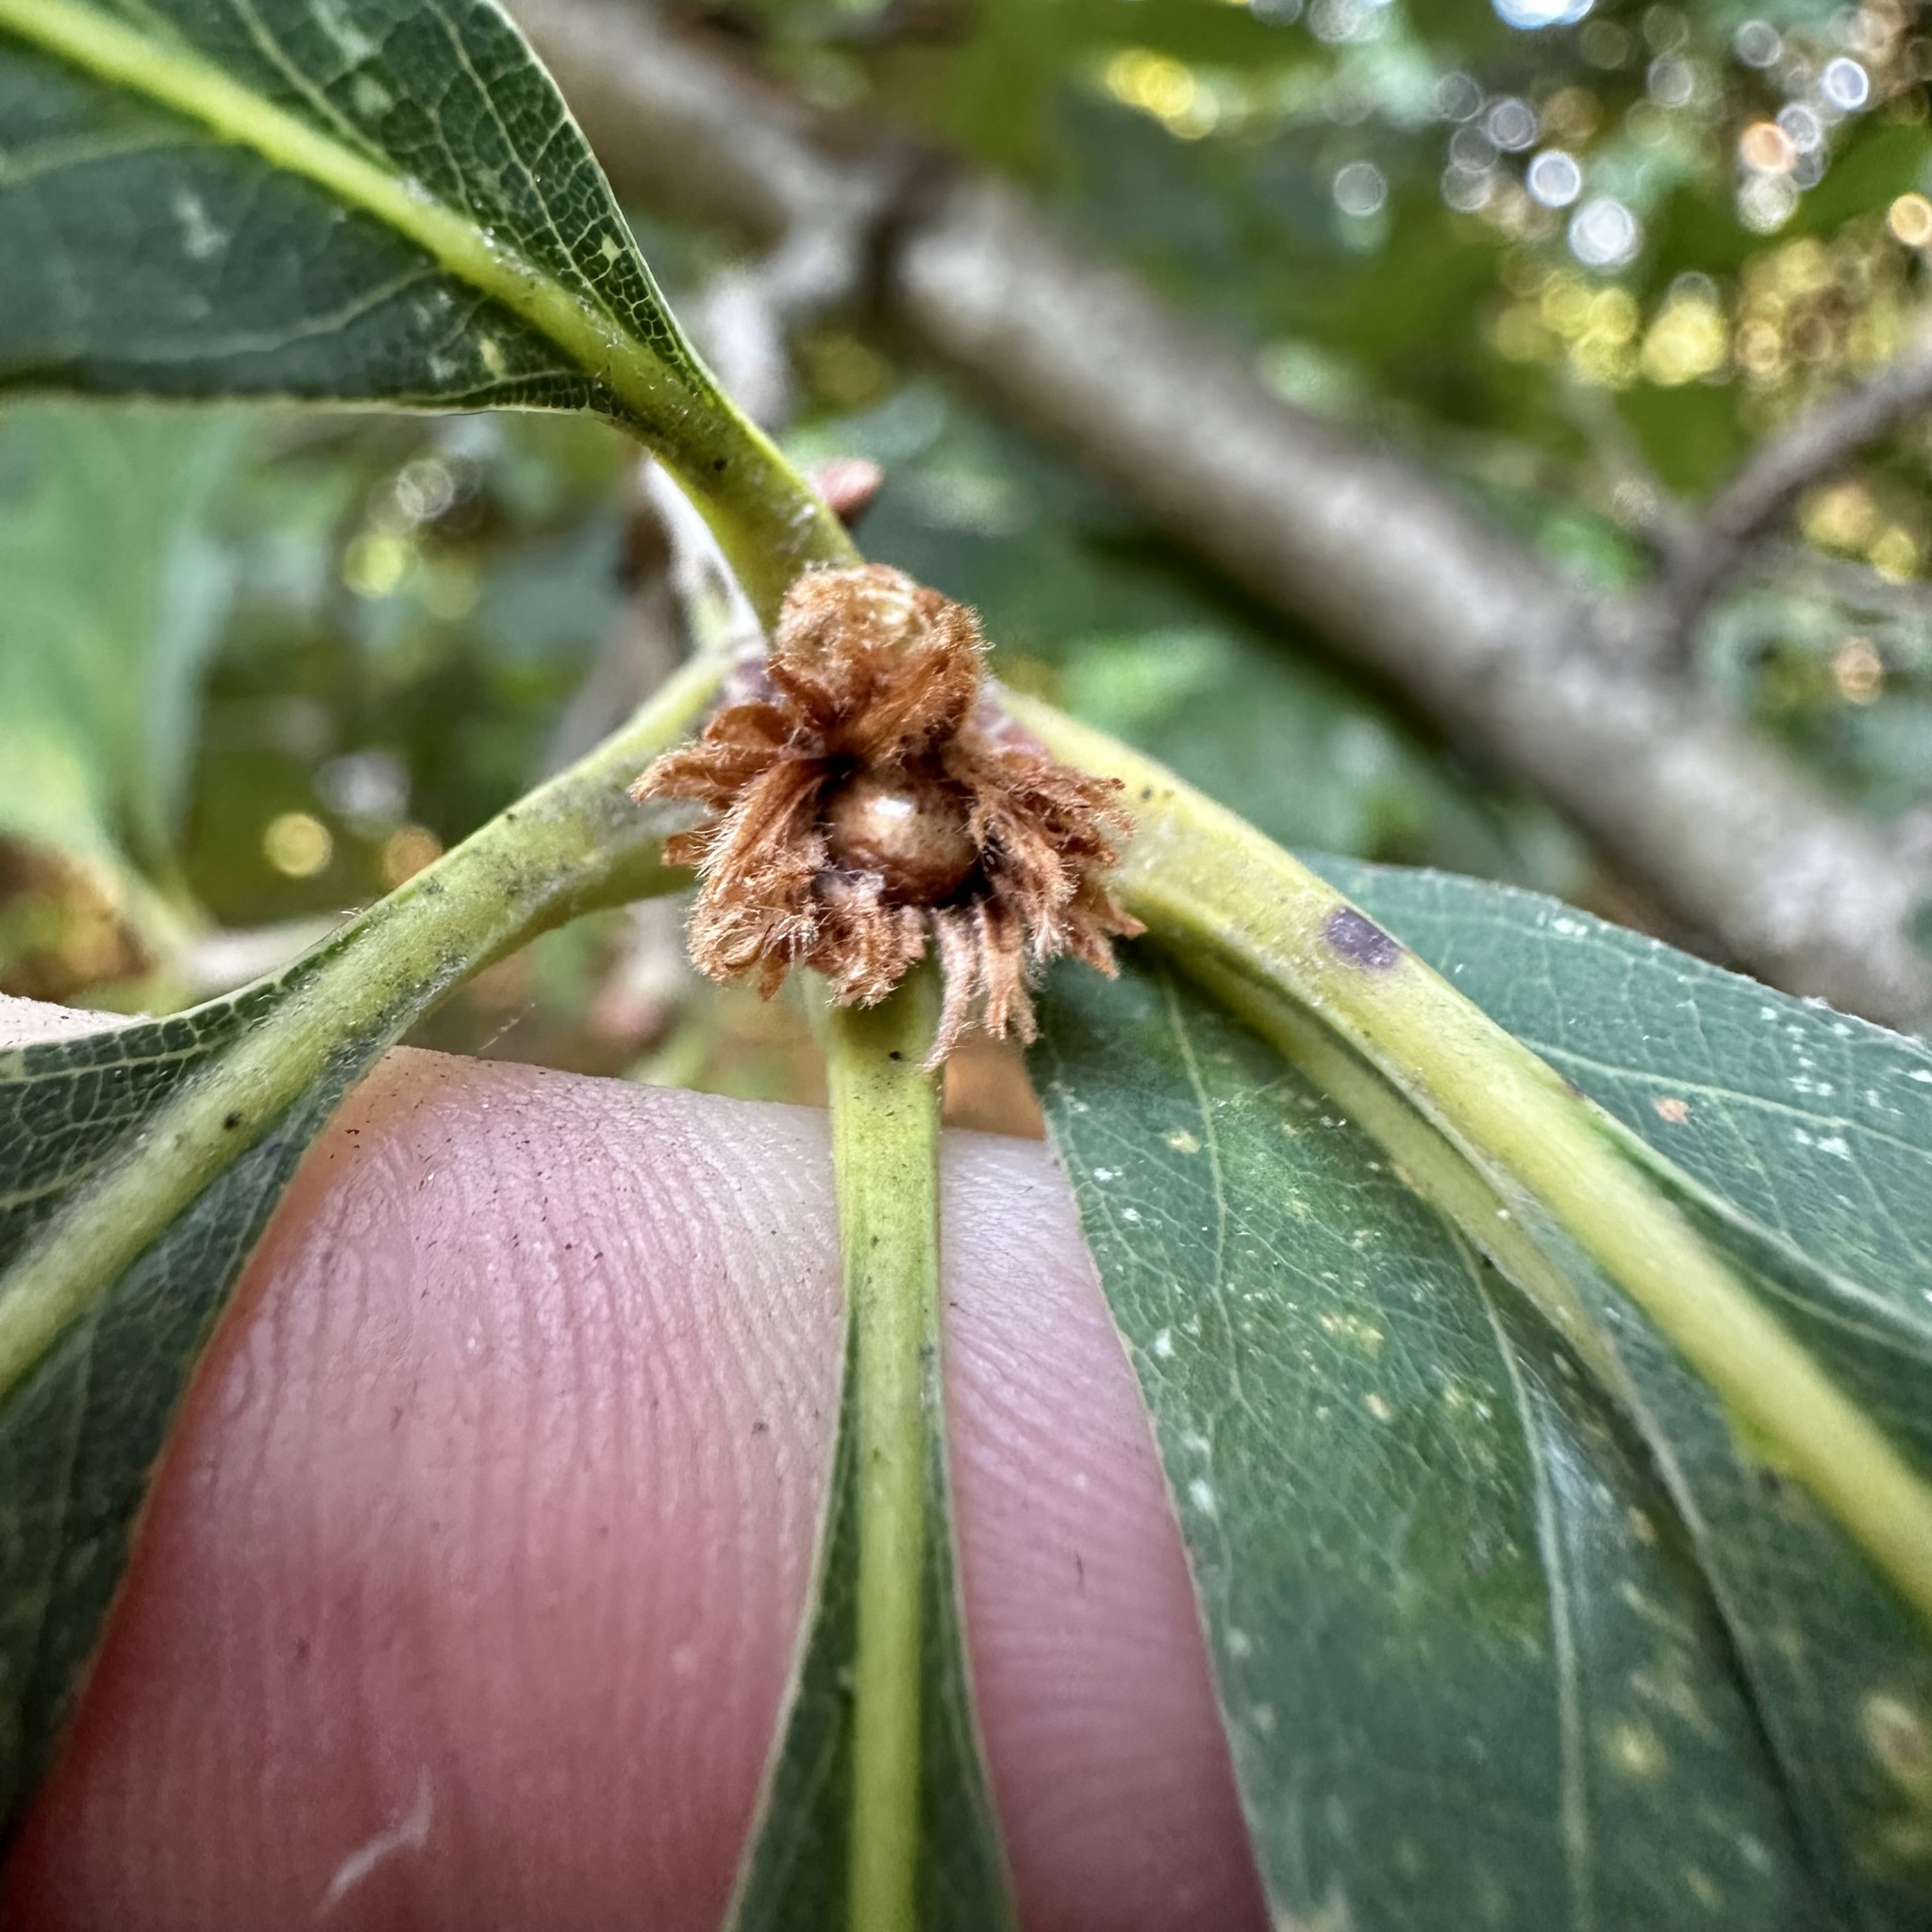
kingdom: Animalia
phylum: Arthropoda
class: Insecta
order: Hymenoptera
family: Cynipidae
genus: Andricus
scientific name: Andricus
